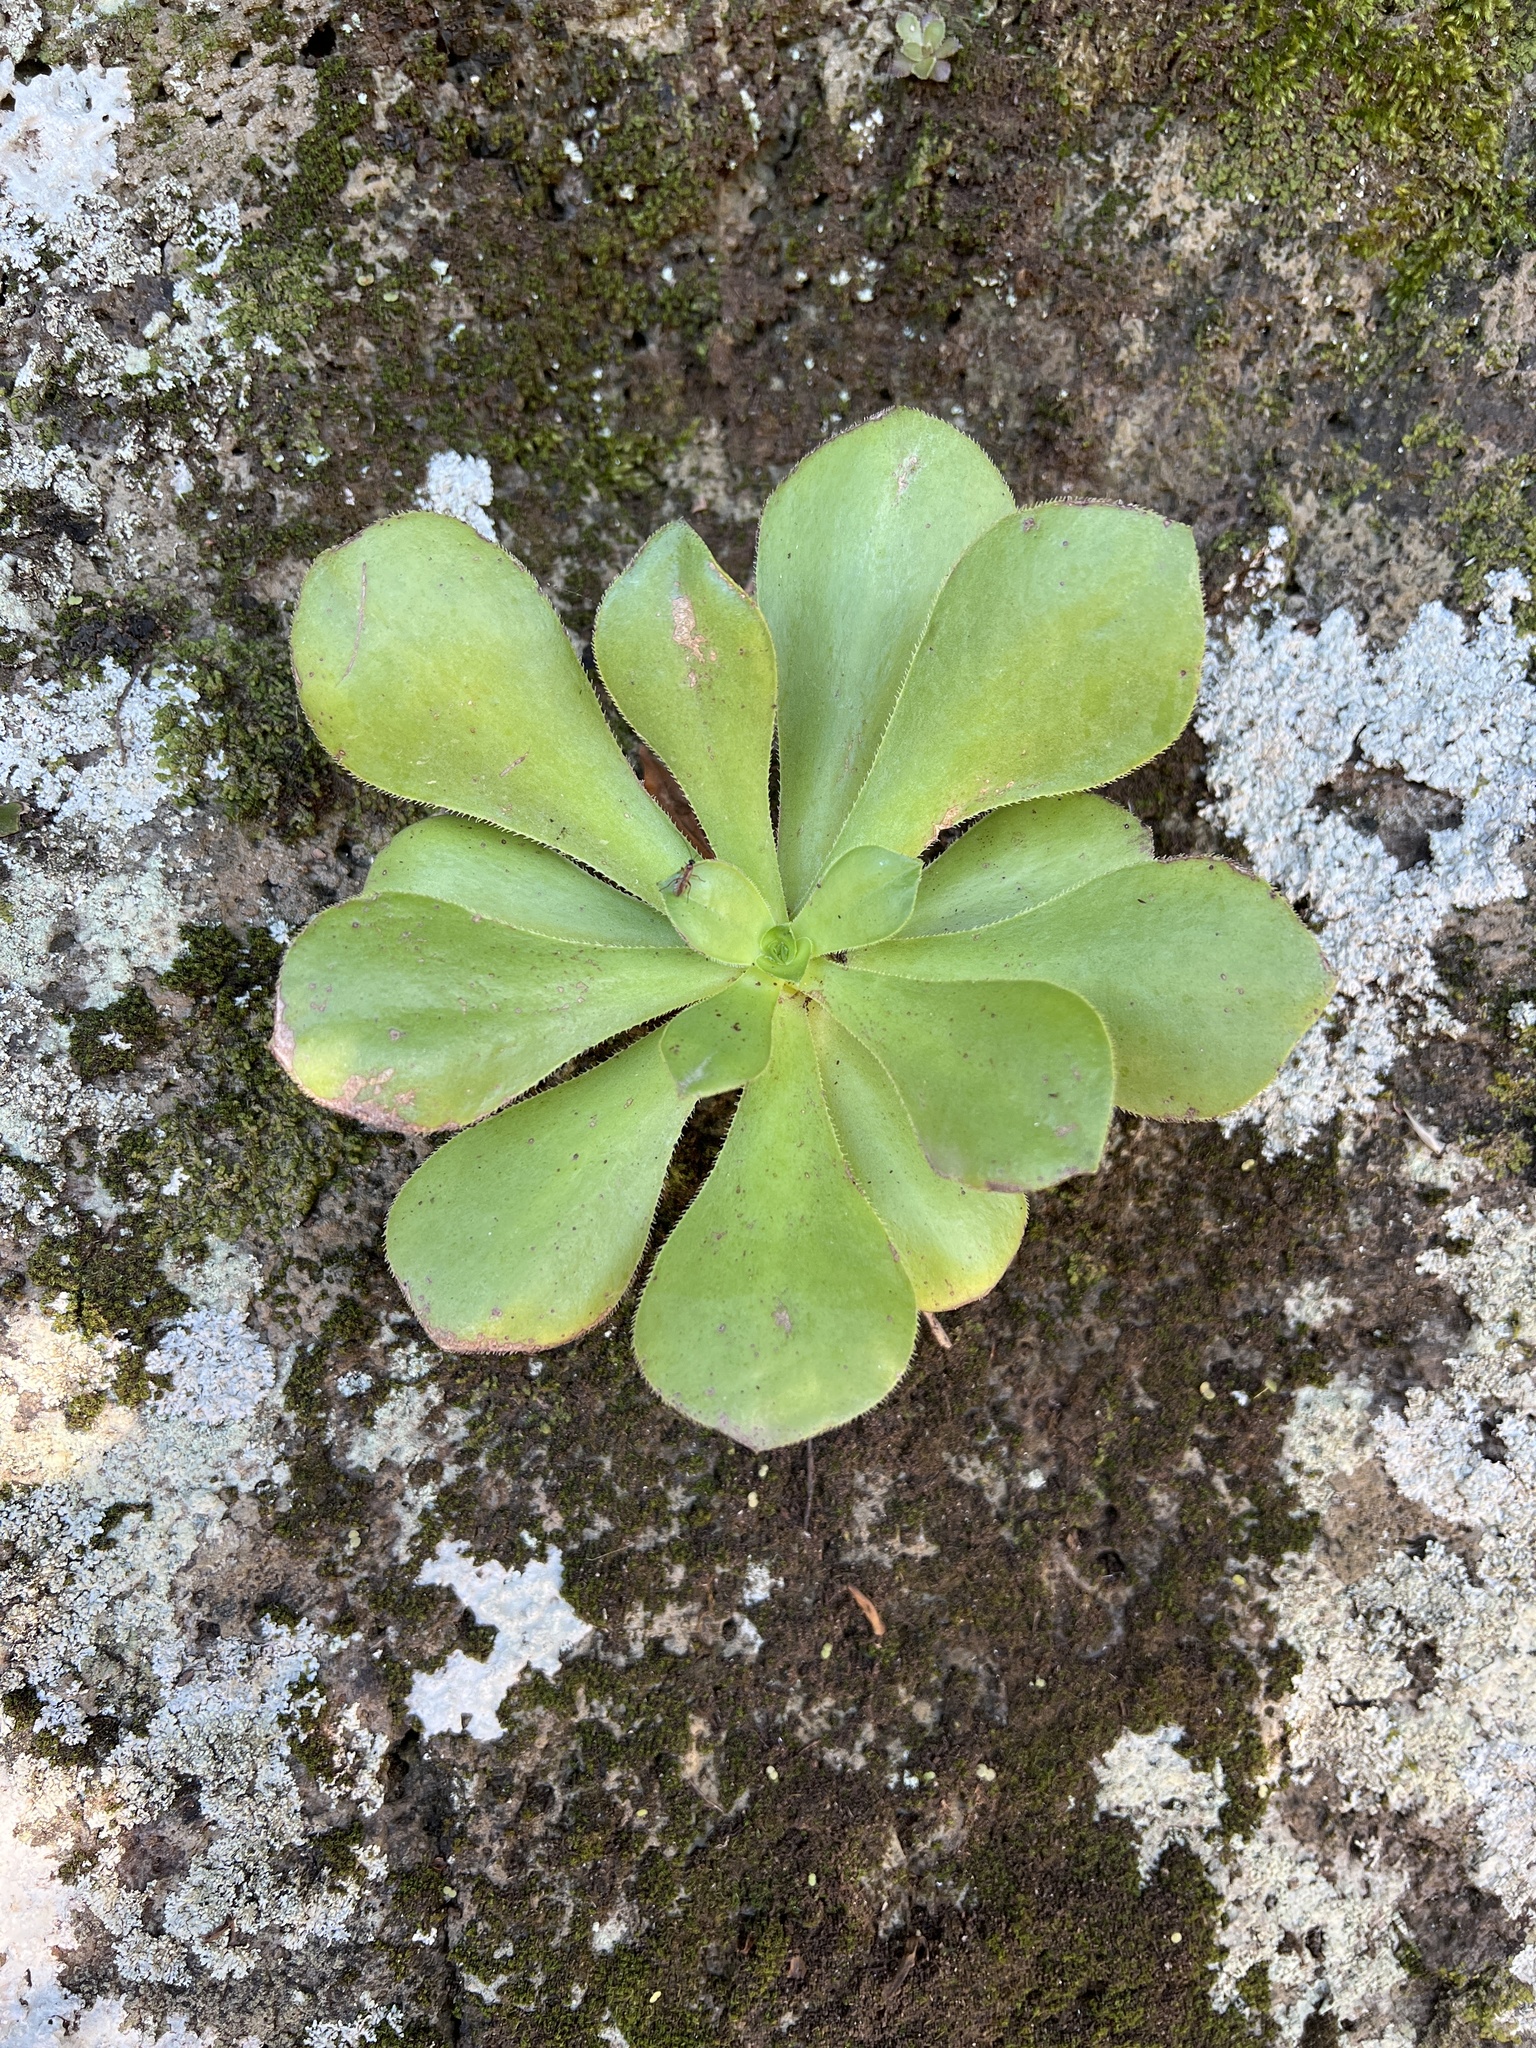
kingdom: Plantae
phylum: Tracheophyta
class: Magnoliopsida
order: Saxifragales
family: Crassulaceae
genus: Aeonium
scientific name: Aeonium glutinosum
